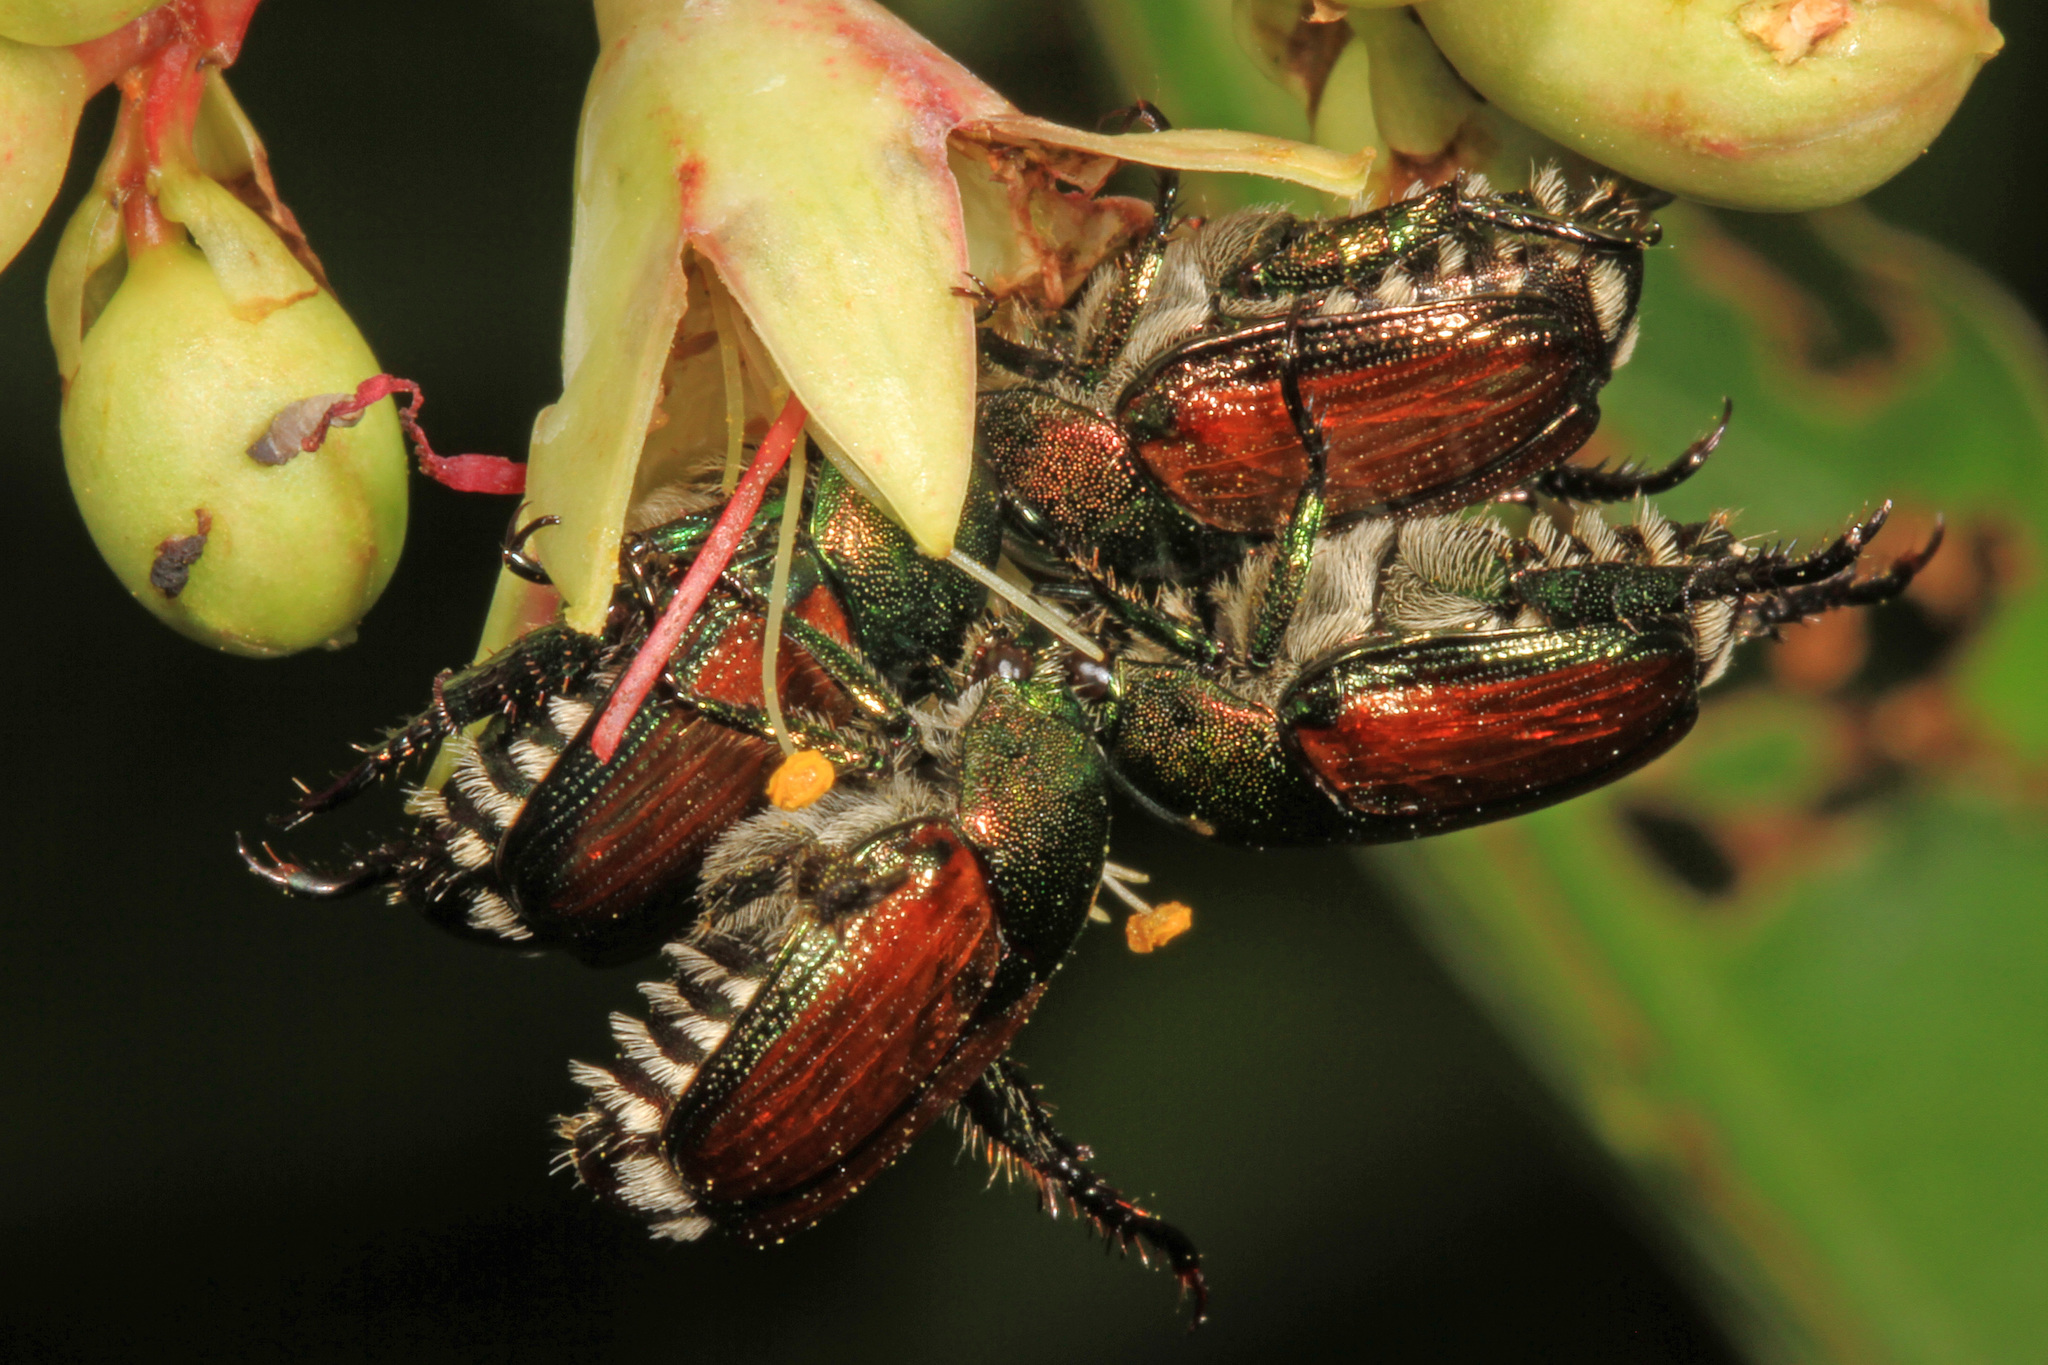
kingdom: Animalia
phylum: Arthropoda
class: Insecta
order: Coleoptera
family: Scarabaeidae
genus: Popillia
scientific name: Popillia japonica
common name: Japanese beetle
